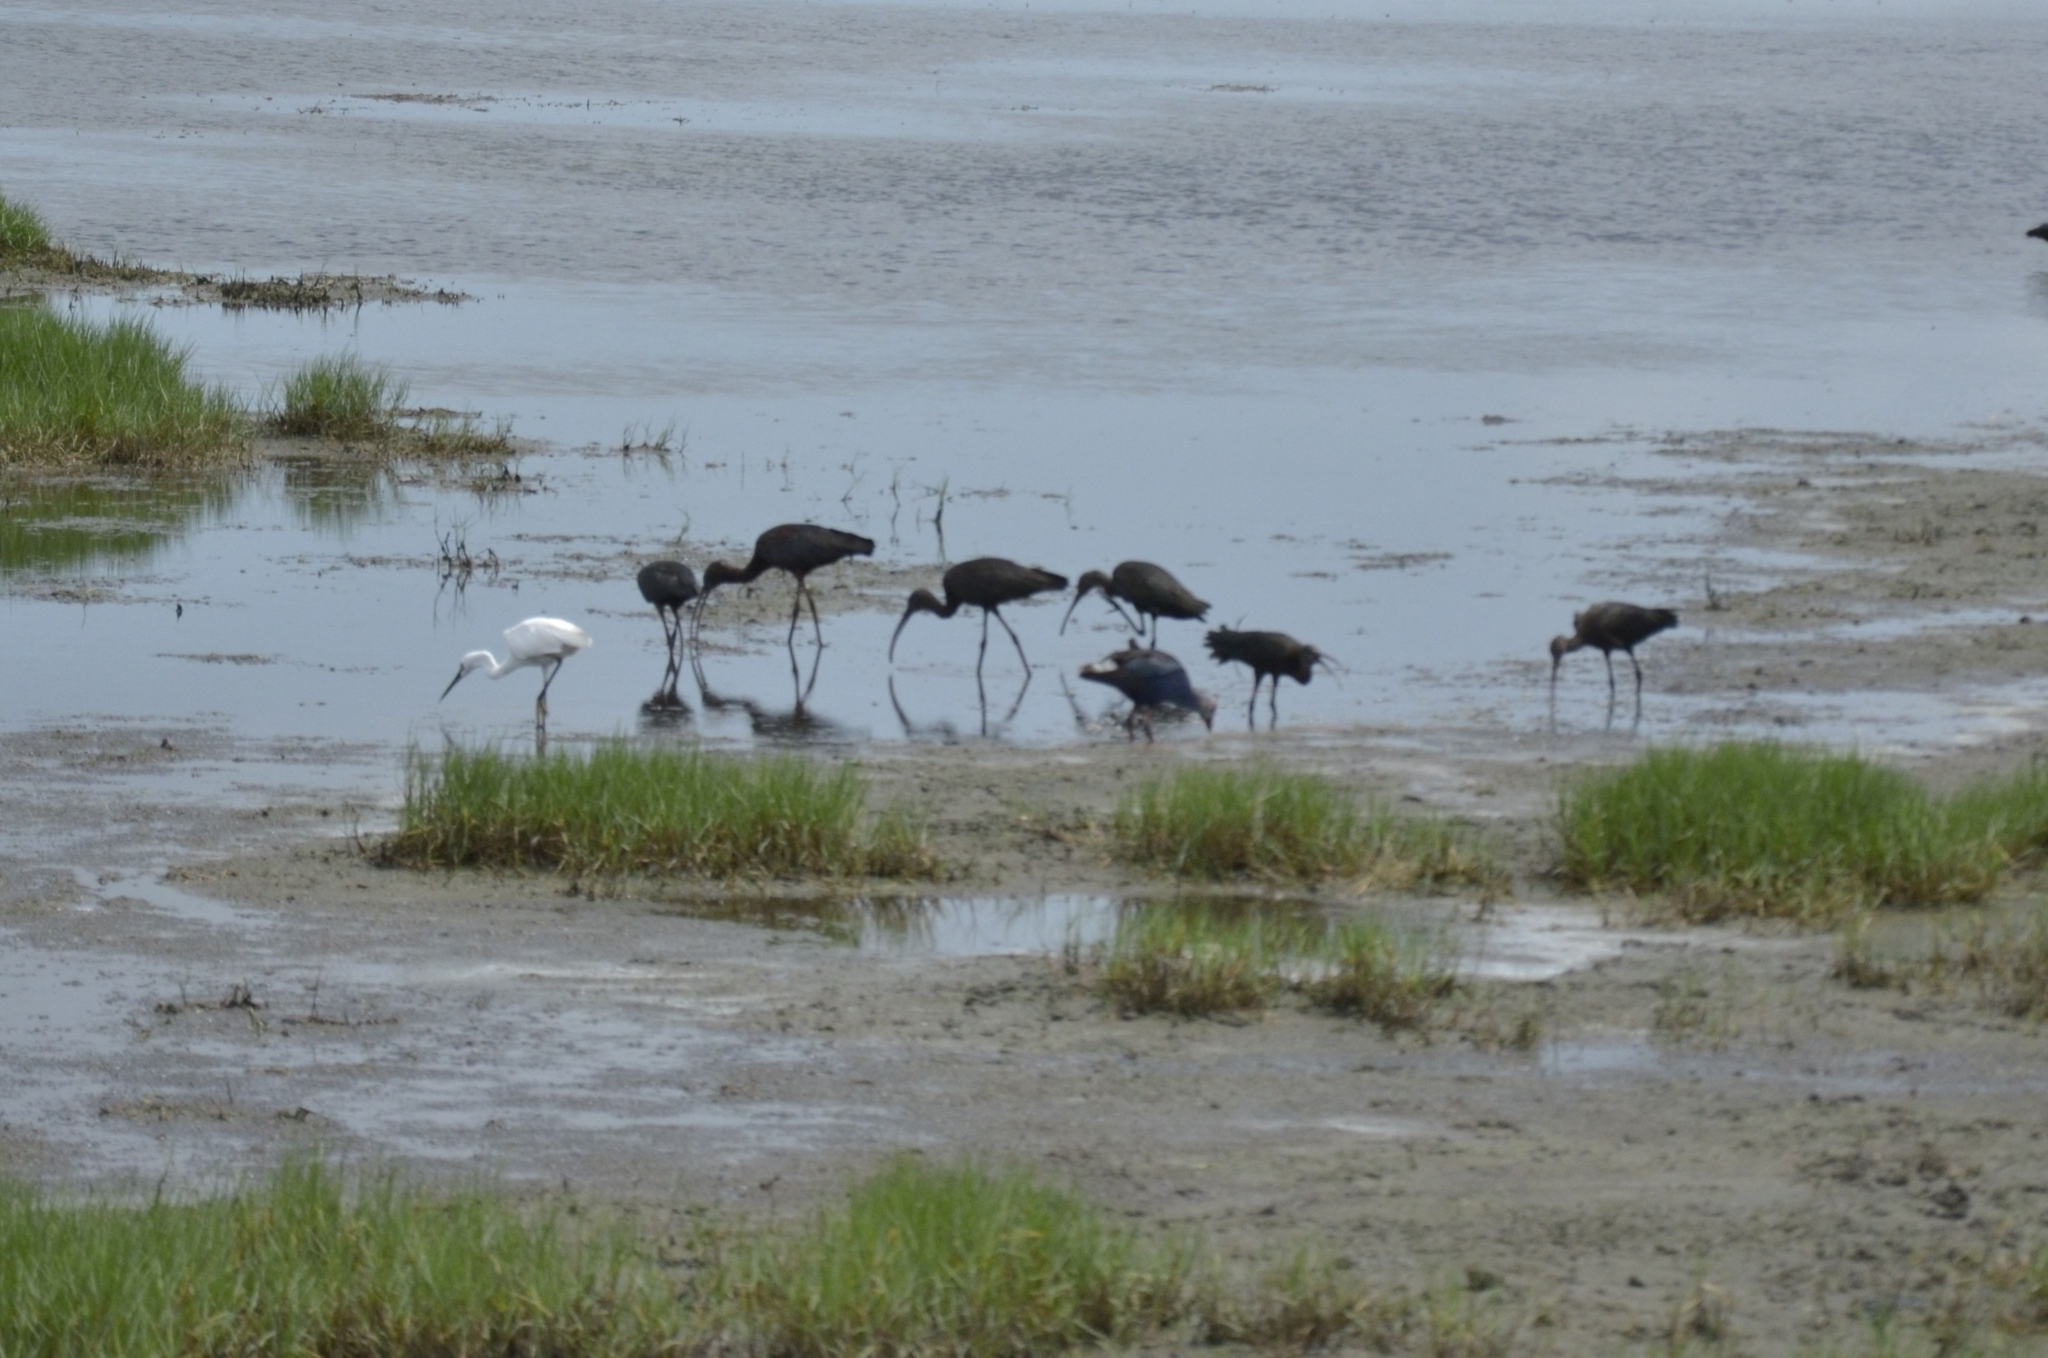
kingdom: Animalia
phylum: Chordata
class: Aves
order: Pelecaniformes
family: Threskiornithidae
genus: Plegadis
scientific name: Plegadis falcinellus
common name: Glossy ibis
